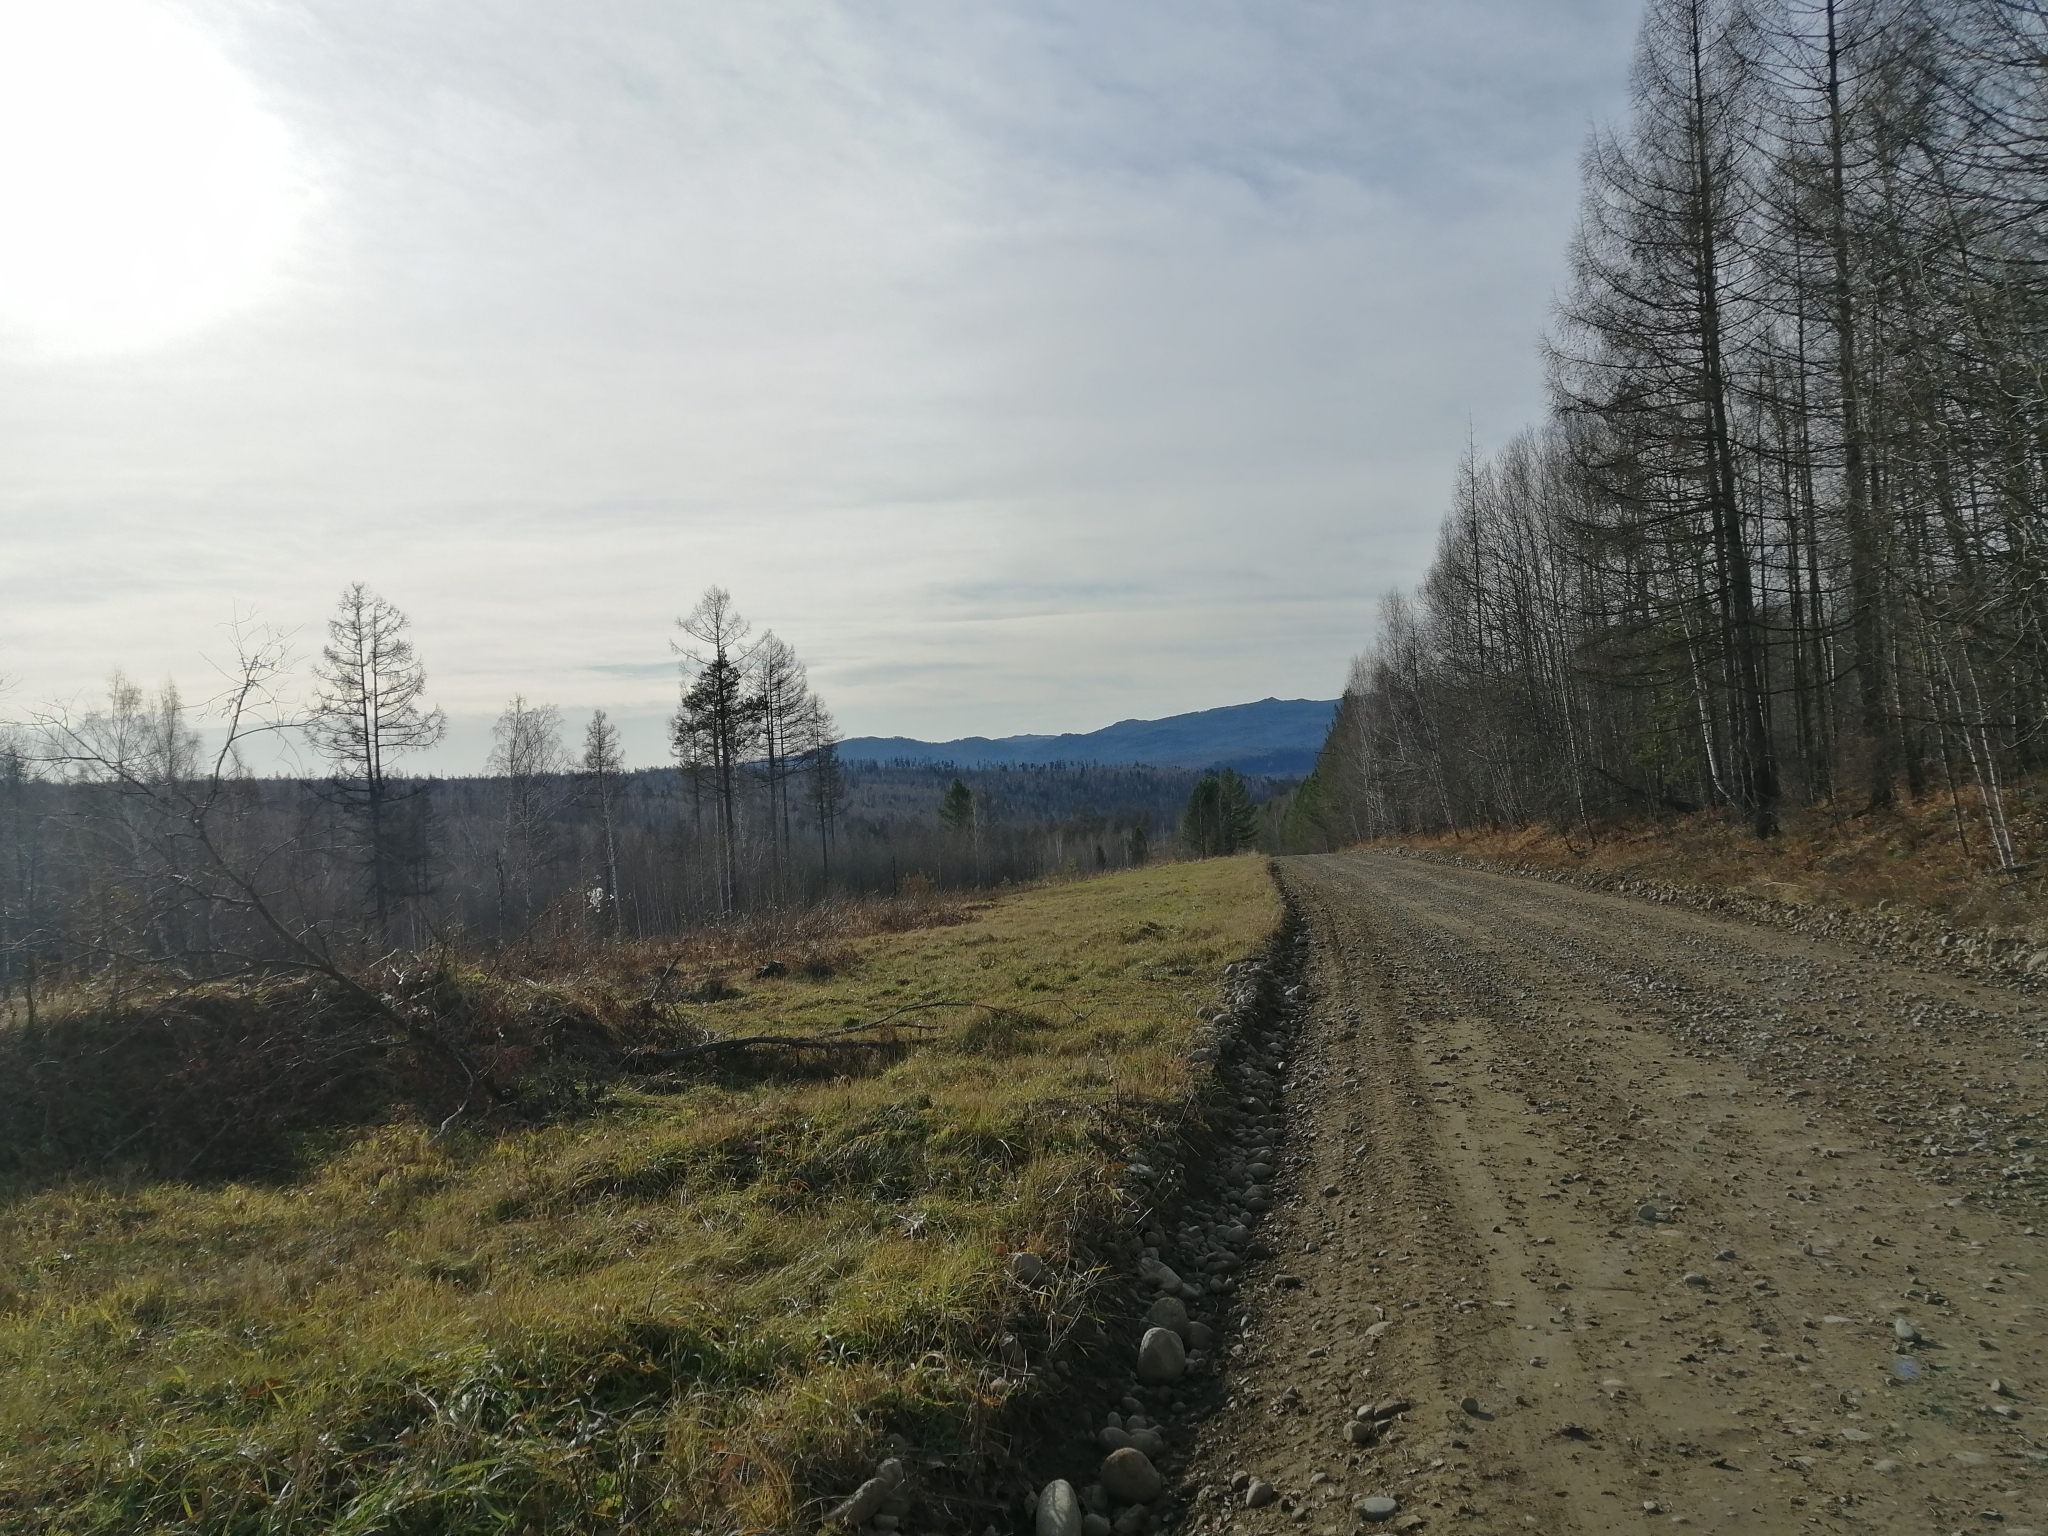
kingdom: Plantae
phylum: Tracheophyta
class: Pinopsida
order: Pinales
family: Pinaceae
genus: Larix
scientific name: Larix sibirica
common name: Siberian larch
